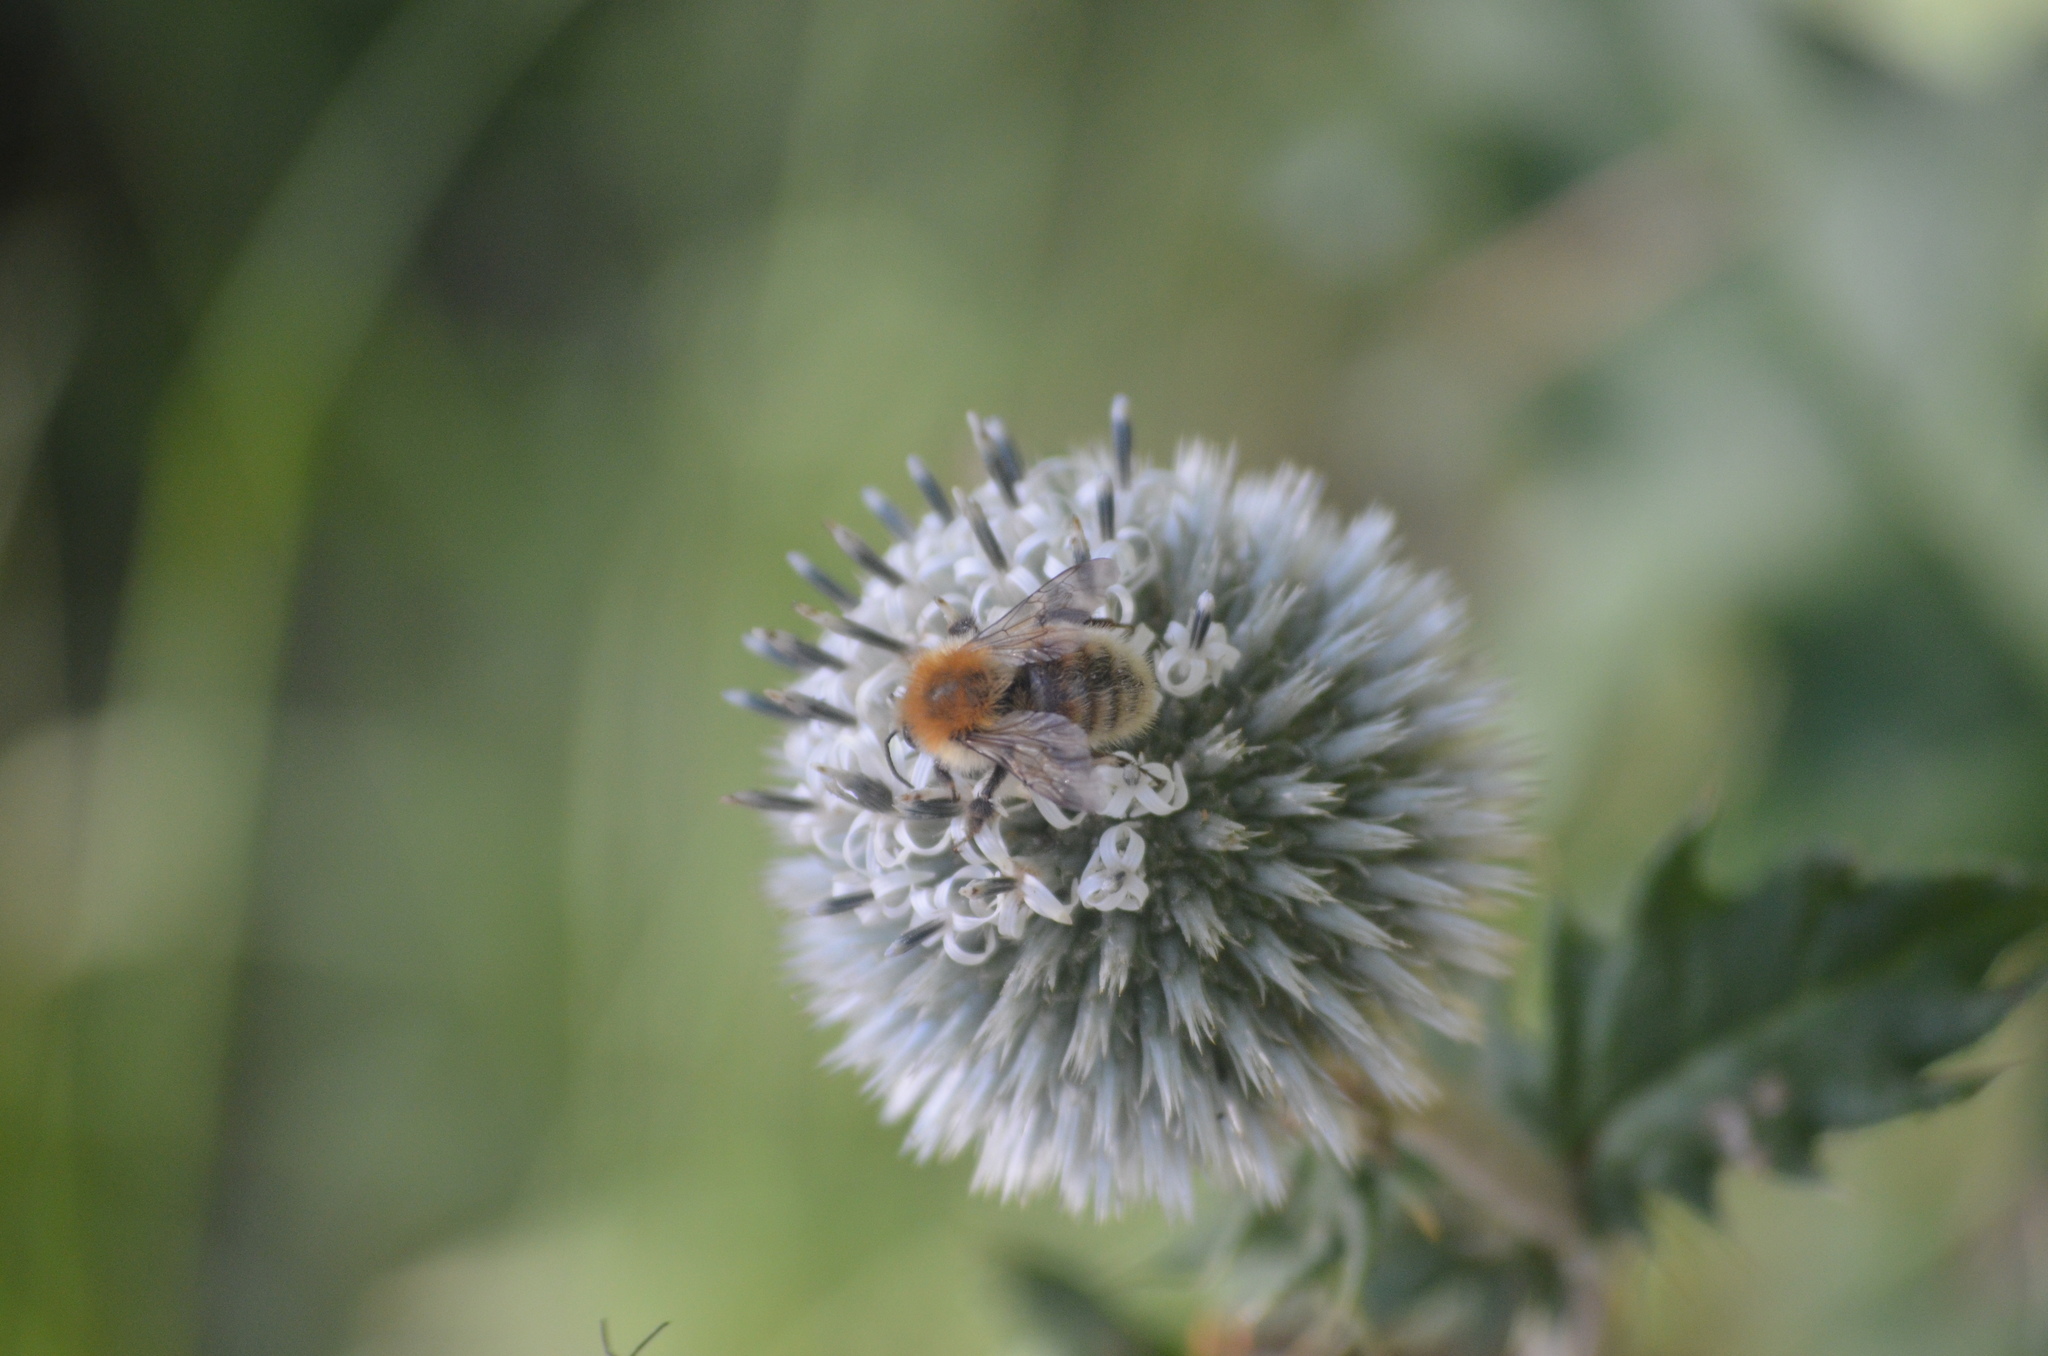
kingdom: Animalia
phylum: Arthropoda
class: Insecta
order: Hymenoptera
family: Apidae
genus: Bombus
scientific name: Bombus pascuorum
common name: Common carder bee
